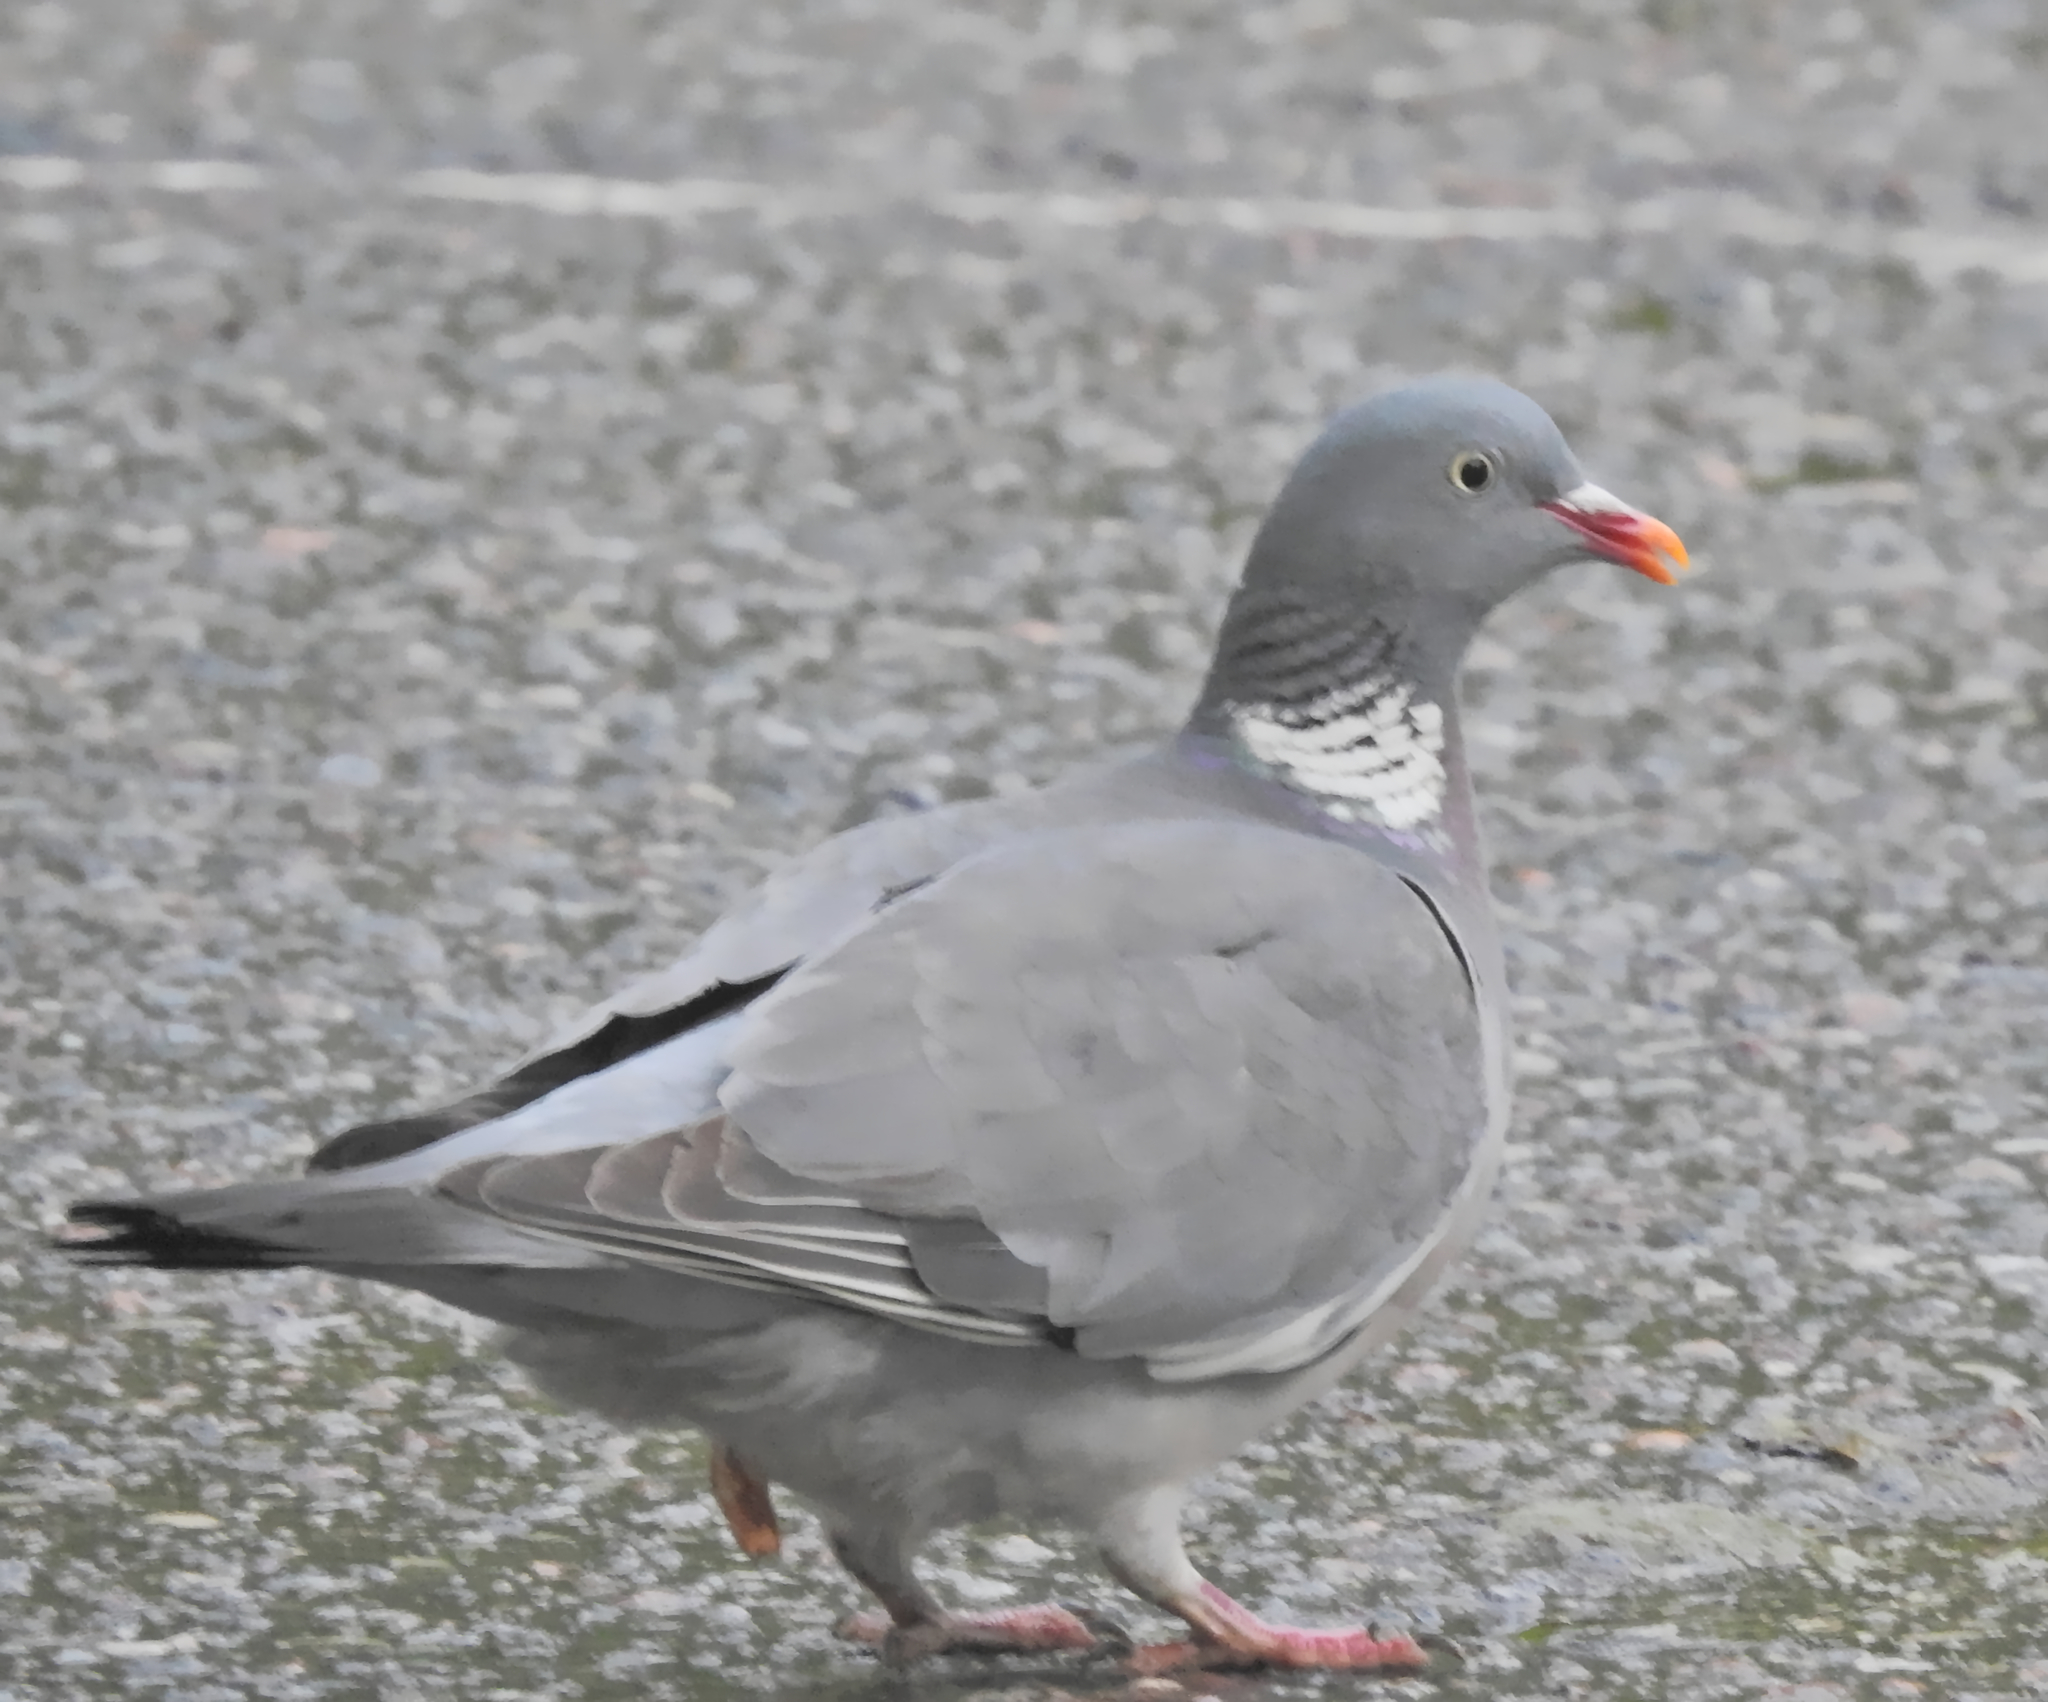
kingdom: Animalia
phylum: Chordata
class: Aves
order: Columbiformes
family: Columbidae
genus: Columba
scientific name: Columba palumbus
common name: Common wood pigeon
